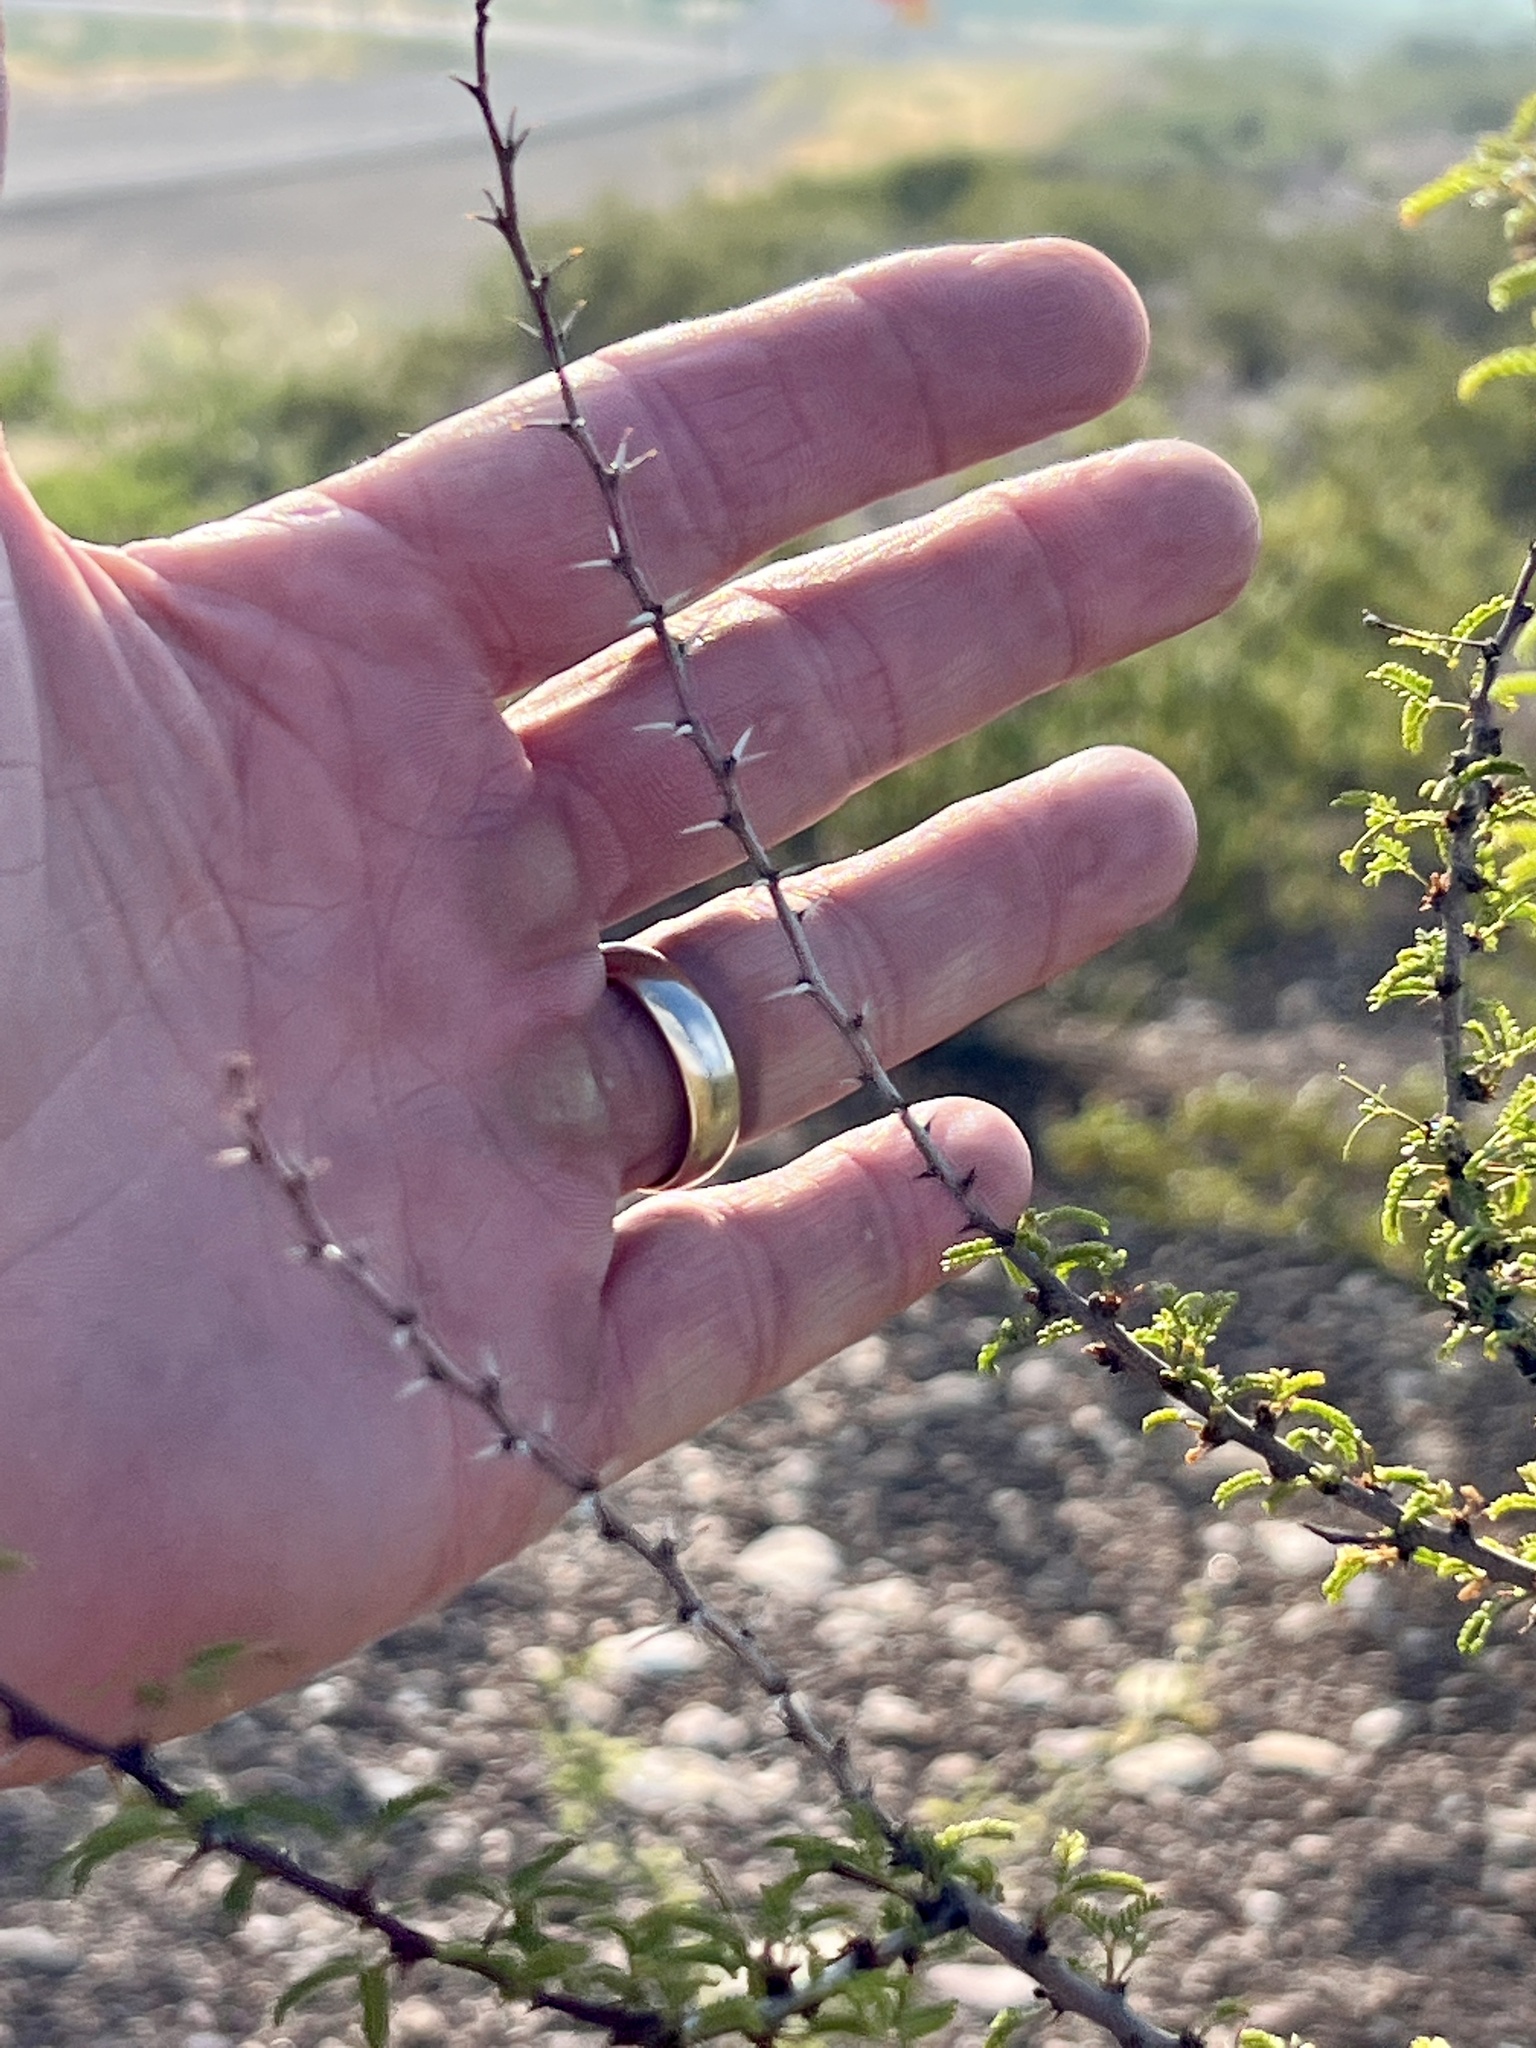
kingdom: Plantae
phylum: Tracheophyta
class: Magnoliopsida
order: Fabales
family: Fabaceae
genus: Vachellia
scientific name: Vachellia vernicosa
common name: Viscid acacia
